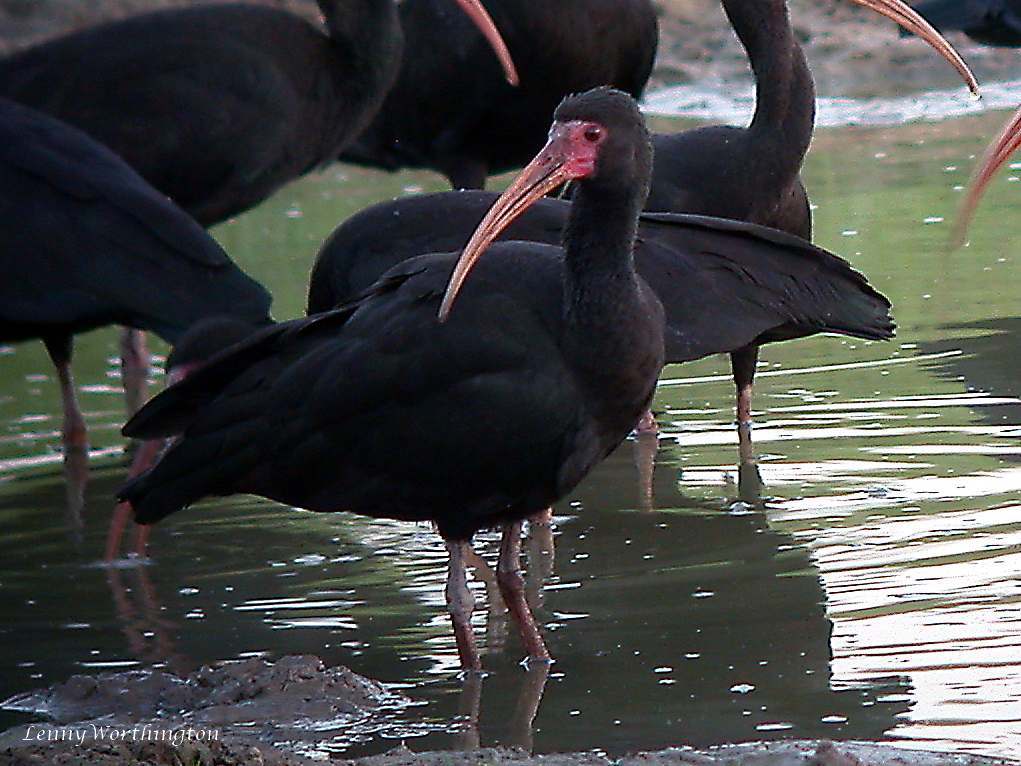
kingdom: Animalia
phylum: Chordata
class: Aves
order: Pelecaniformes
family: Threskiornithidae
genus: Phimosus
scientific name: Phimosus infuscatus
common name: Bare-faced ibis
